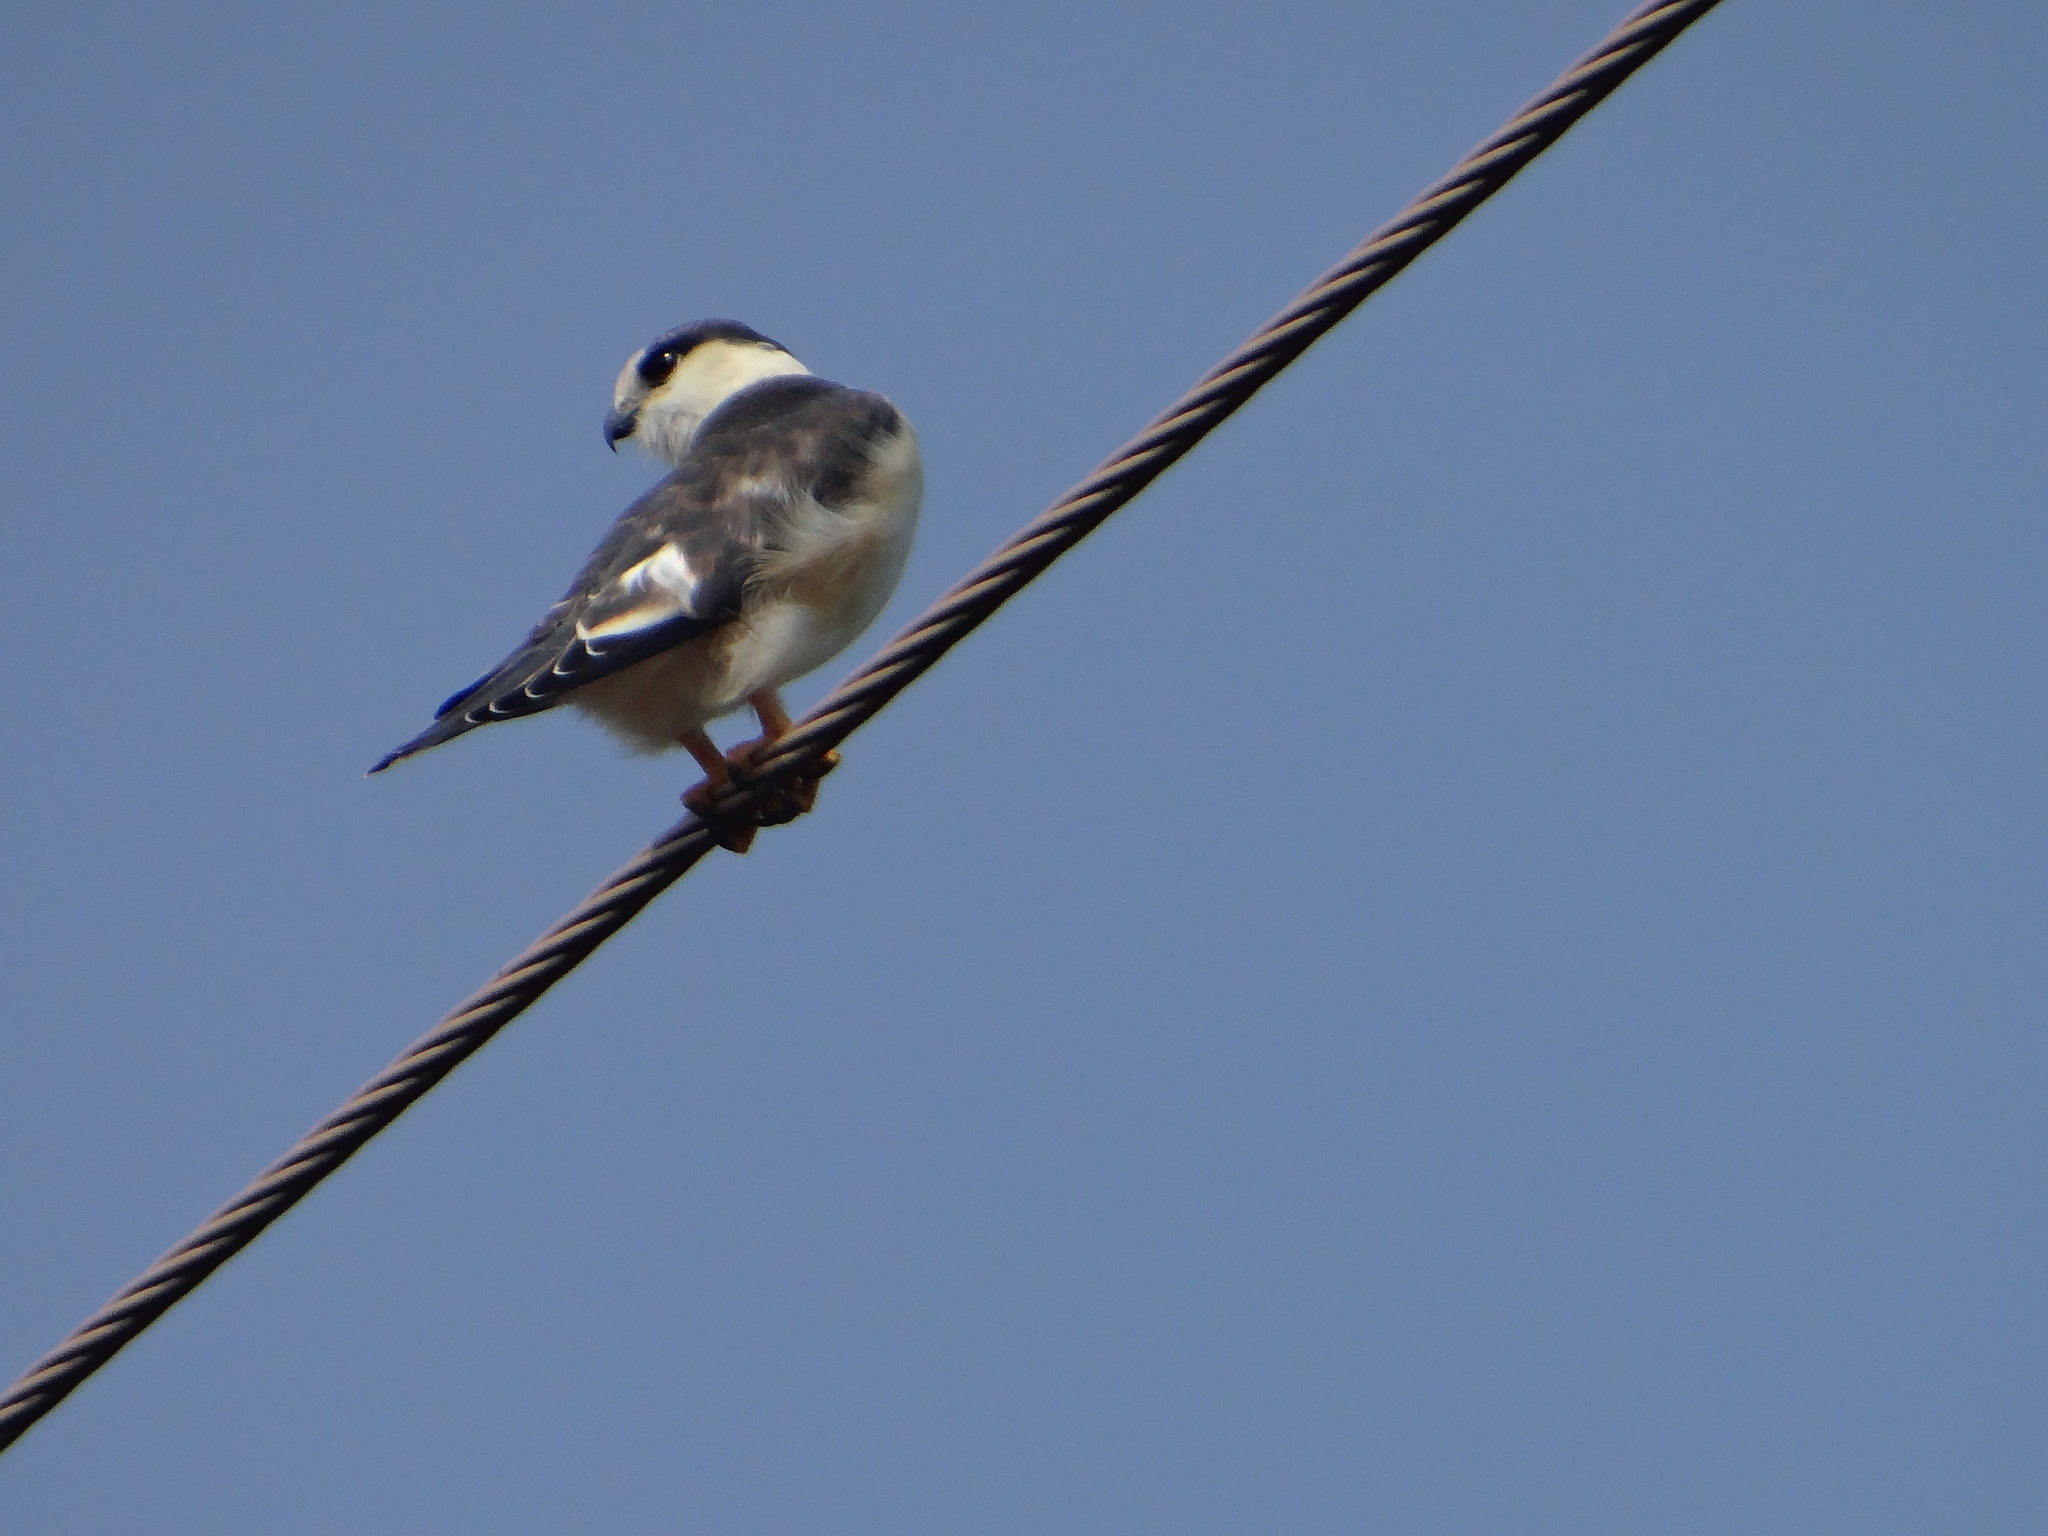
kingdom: Animalia
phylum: Chordata
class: Aves
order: Accipitriformes
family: Accipitridae
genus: Gampsonyx
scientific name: Gampsonyx swainsonii
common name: Pearl kite
